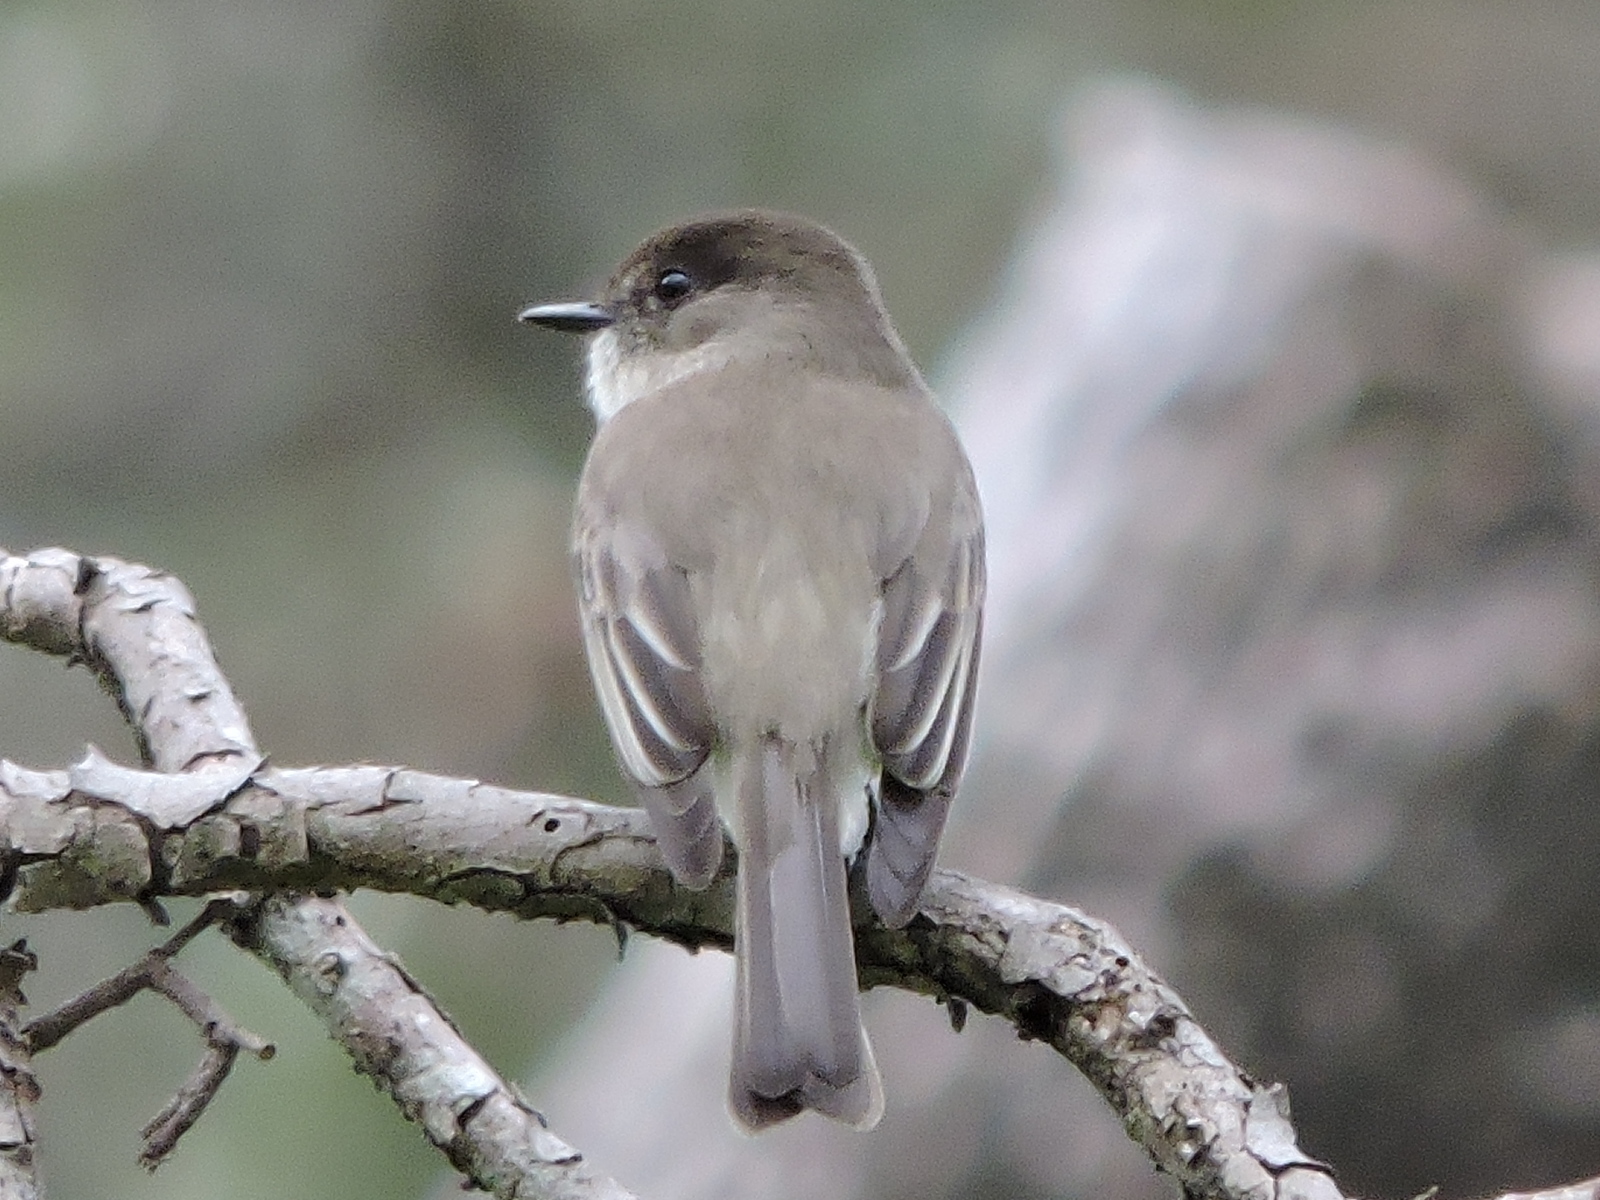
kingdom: Animalia
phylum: Chordata
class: Aves
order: Passeriformes
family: Tyrannidae
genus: Sayornis
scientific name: Sayornis phoebe
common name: Eastern phoebe
